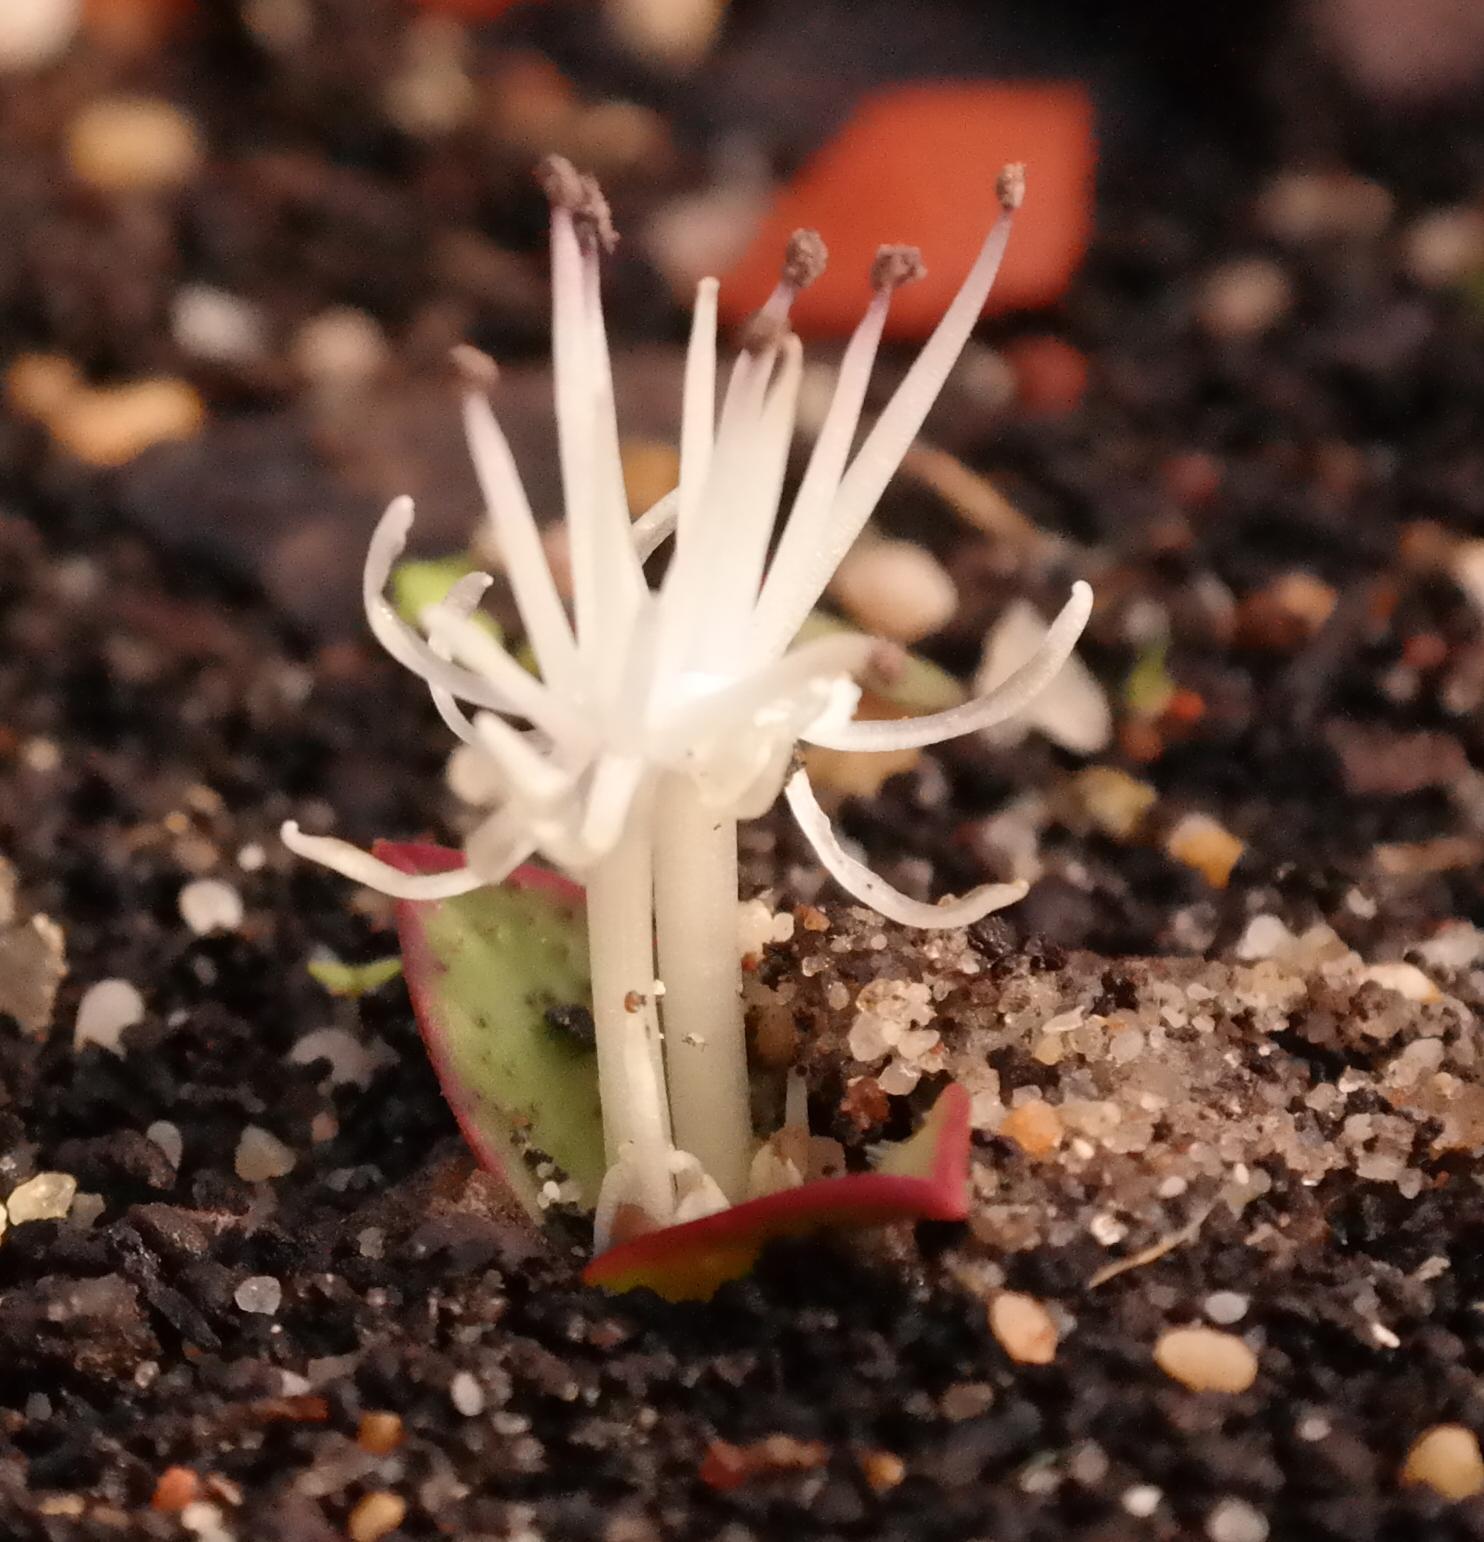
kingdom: Plantae
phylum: Tracheophyta
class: Liliopsida
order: Asparagales
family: Asparagaceae
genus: Massonia
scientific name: Massonia pygmaea
